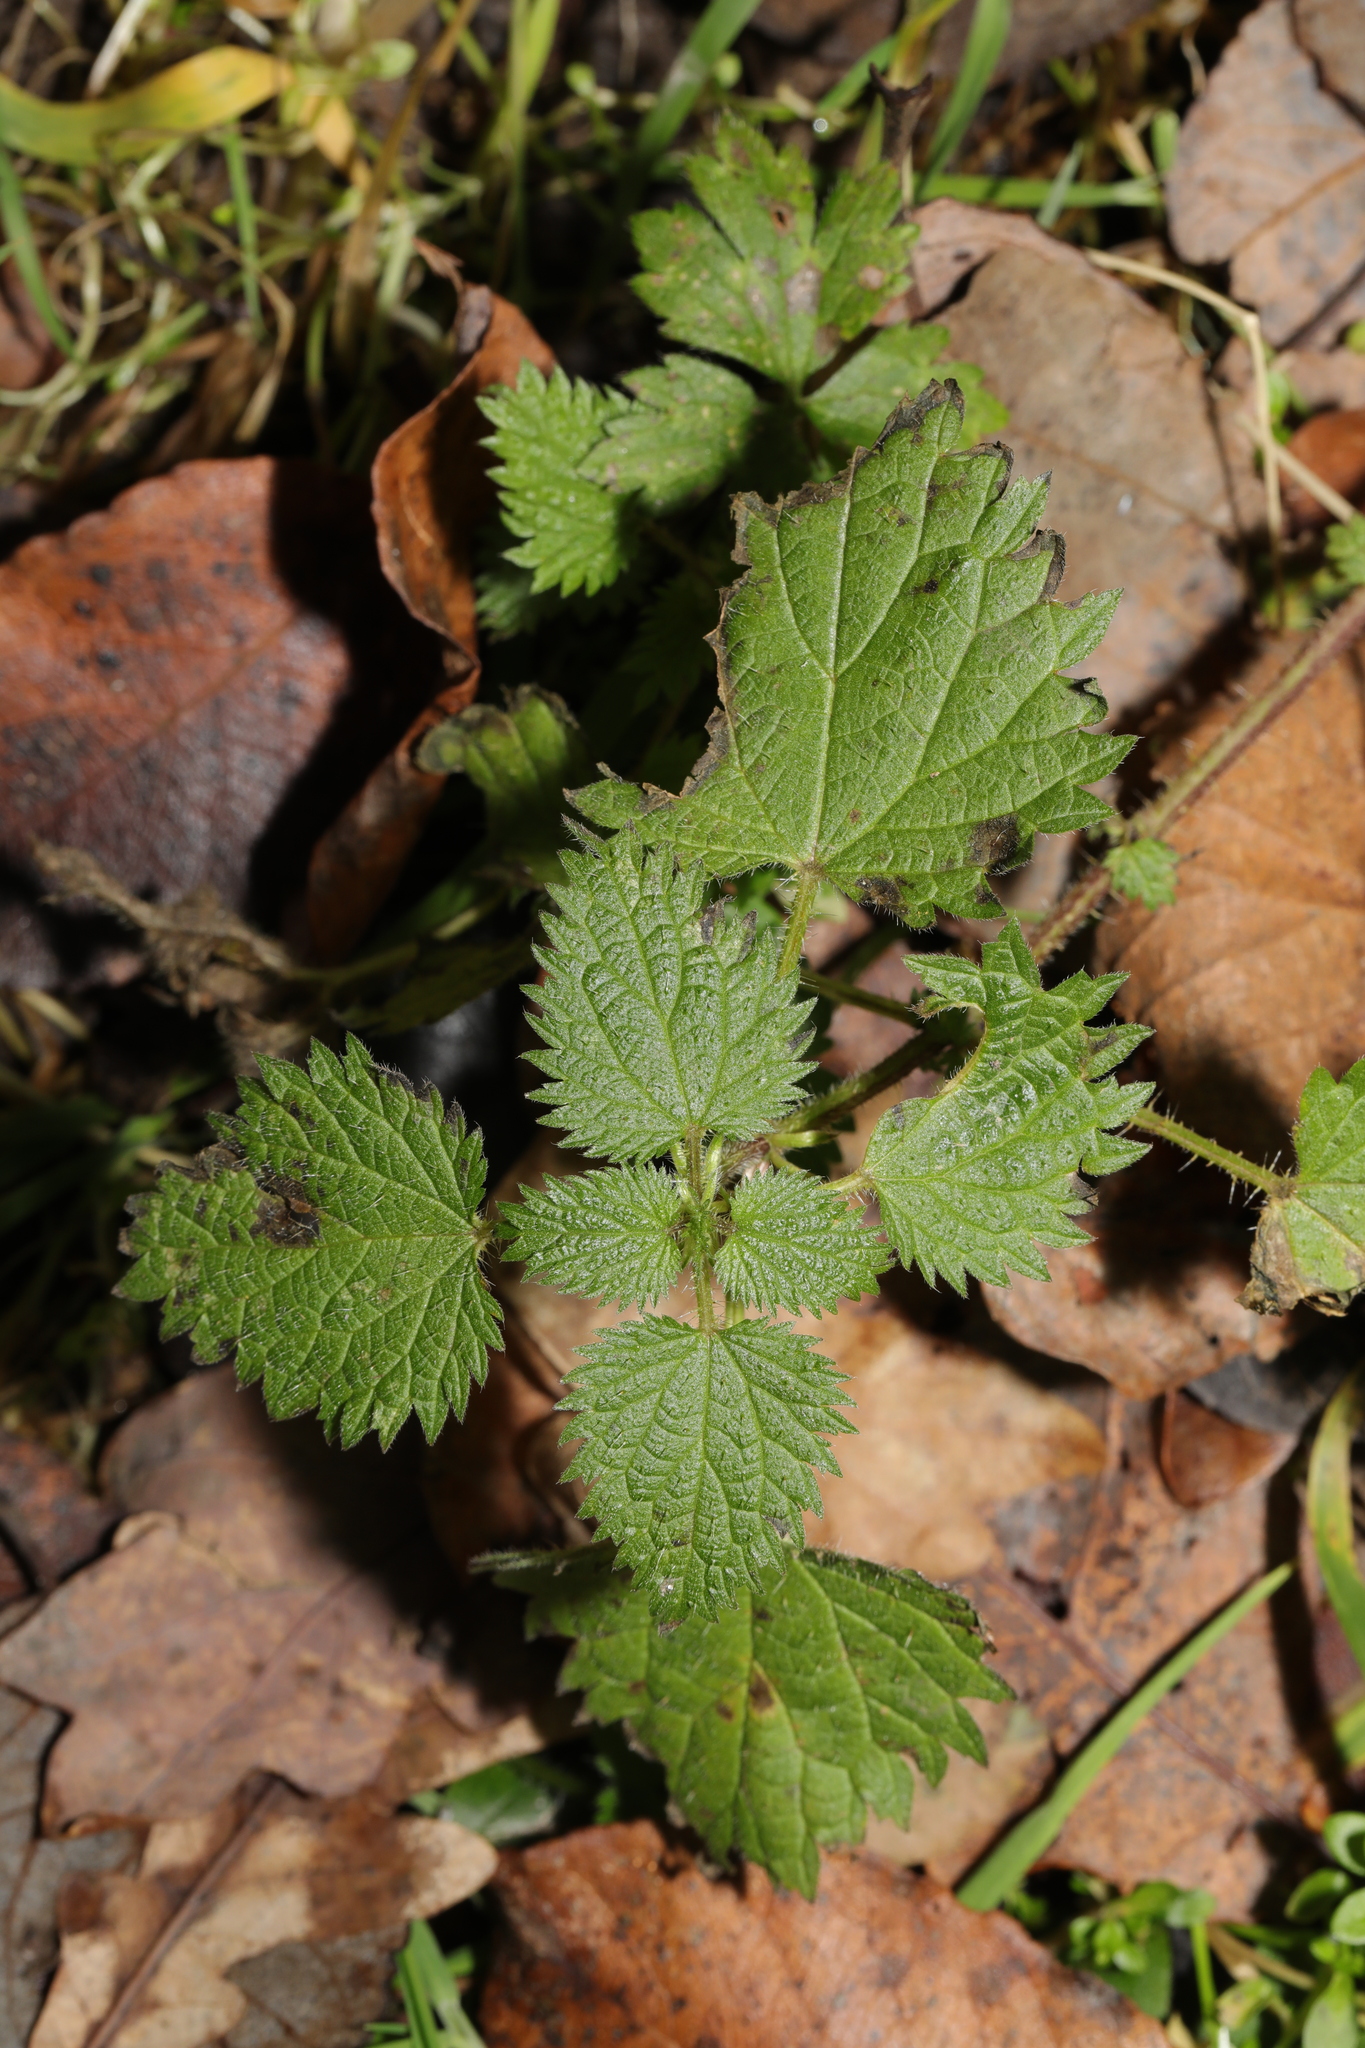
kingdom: Plantae
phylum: Tracheophyta
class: Magnoliopsida
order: Rosales
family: Urticaceae
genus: Urtica
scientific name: Urtica dioica
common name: Common nettle
